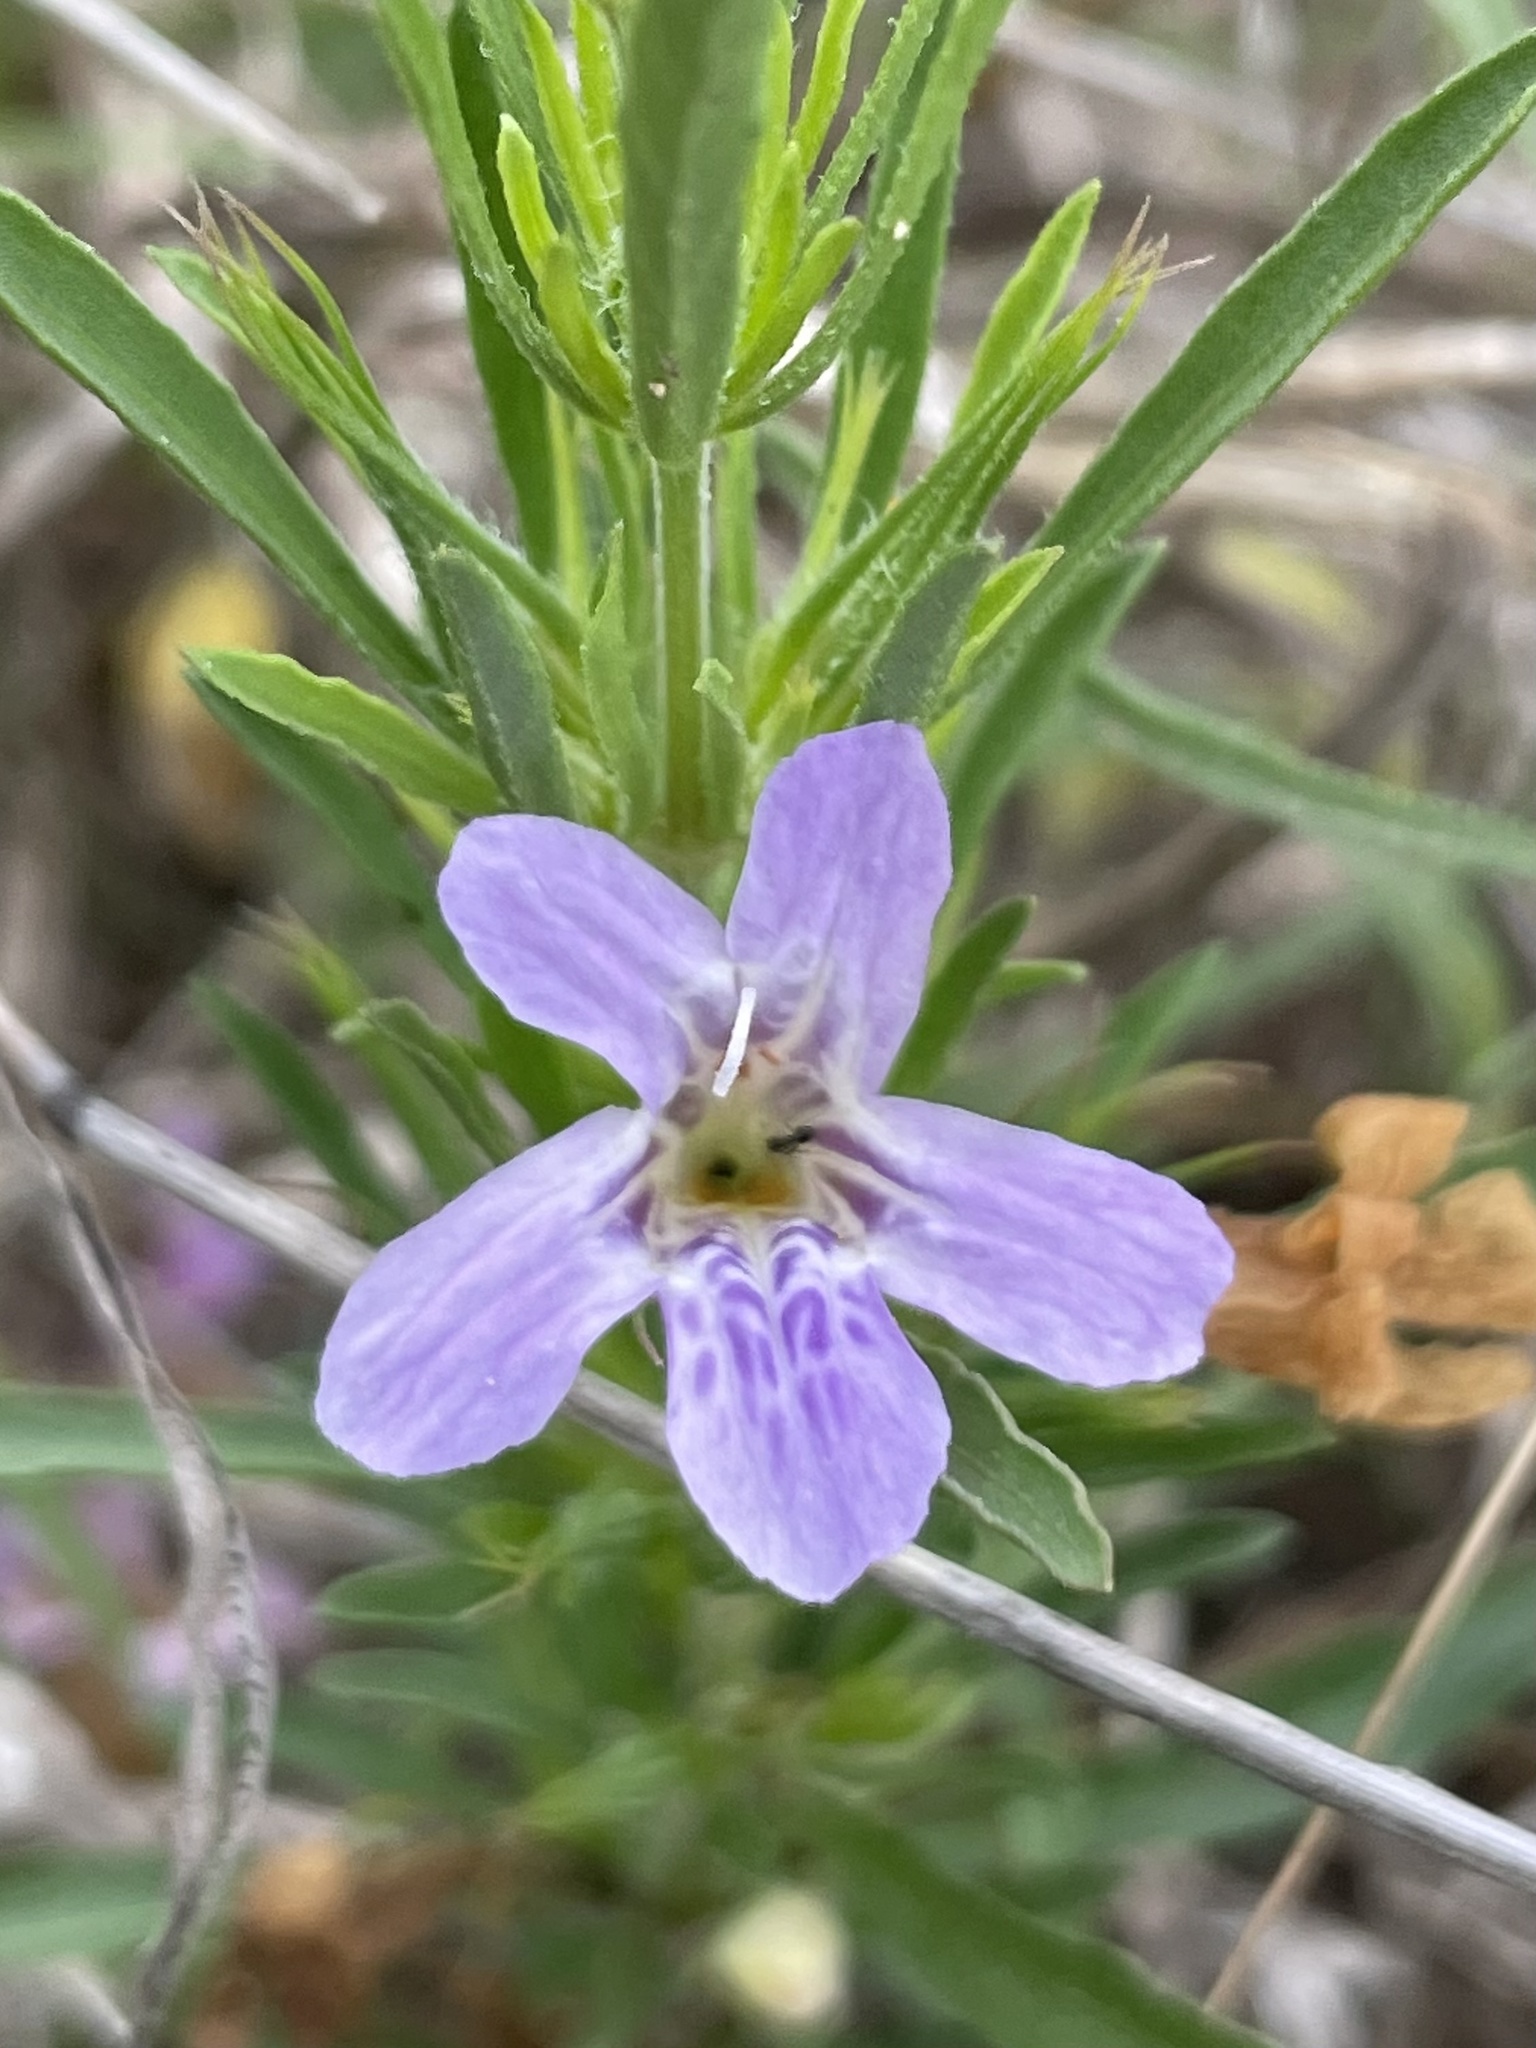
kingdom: Plantae
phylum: Tracheophyta
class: Magnoliopsida
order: Lamiales
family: Acanthaceae
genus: Dyschoriste
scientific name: Dyschoriste linearis
